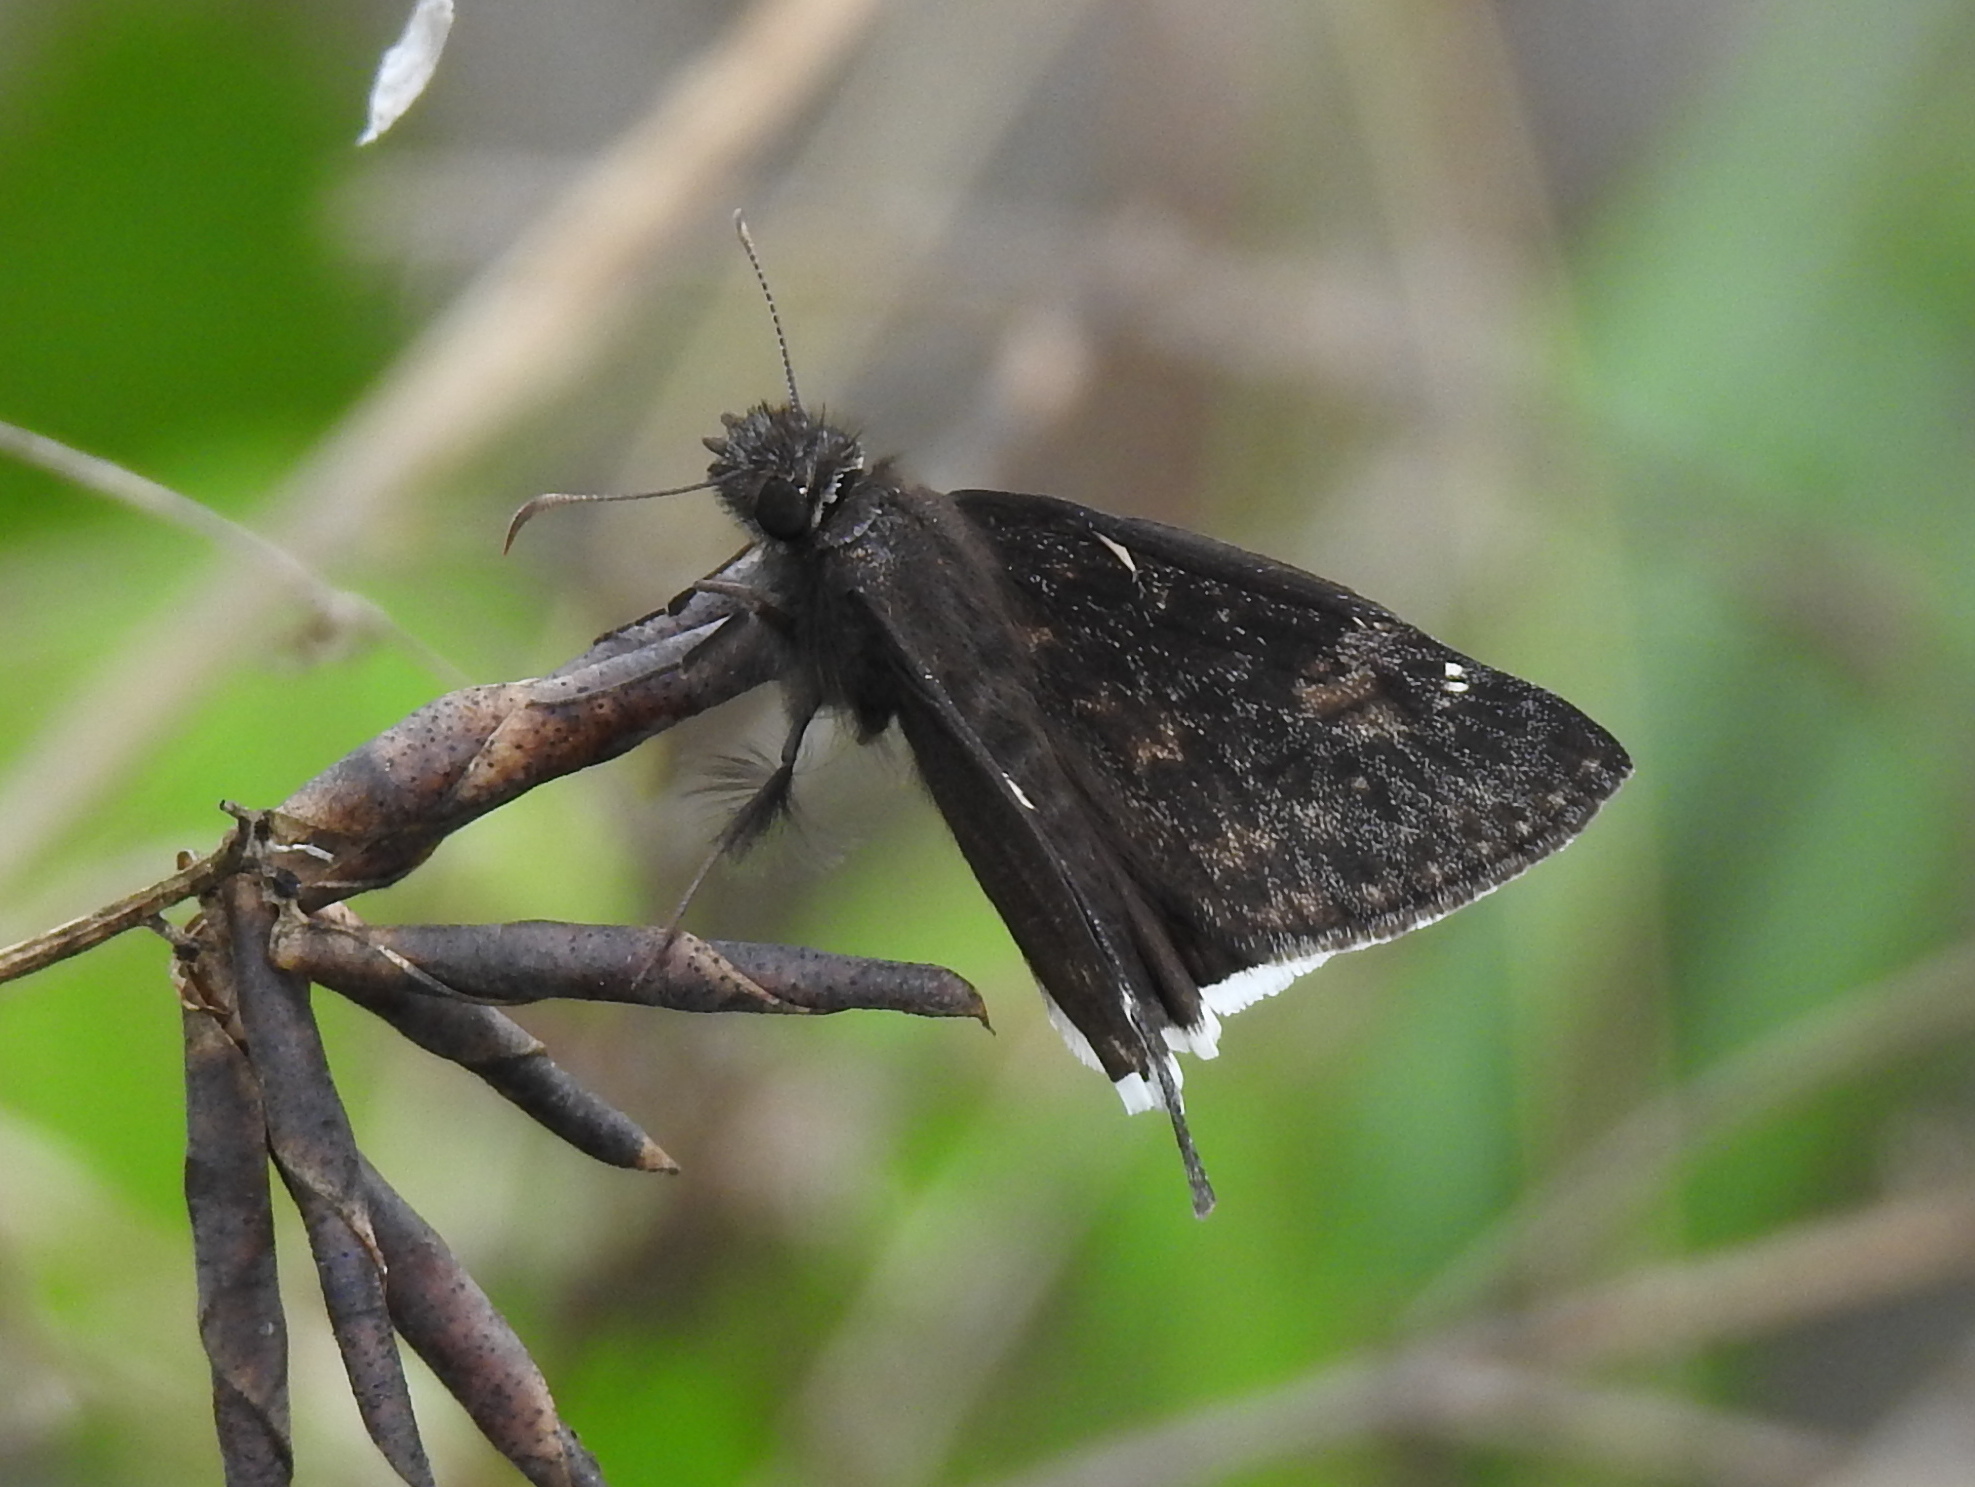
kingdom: Animalia
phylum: Arthropoda
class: Insecta
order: Lepidoptera
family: Hesperiidae
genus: Erynnis
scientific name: Erynnis funeralis
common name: Funereal duskywing
